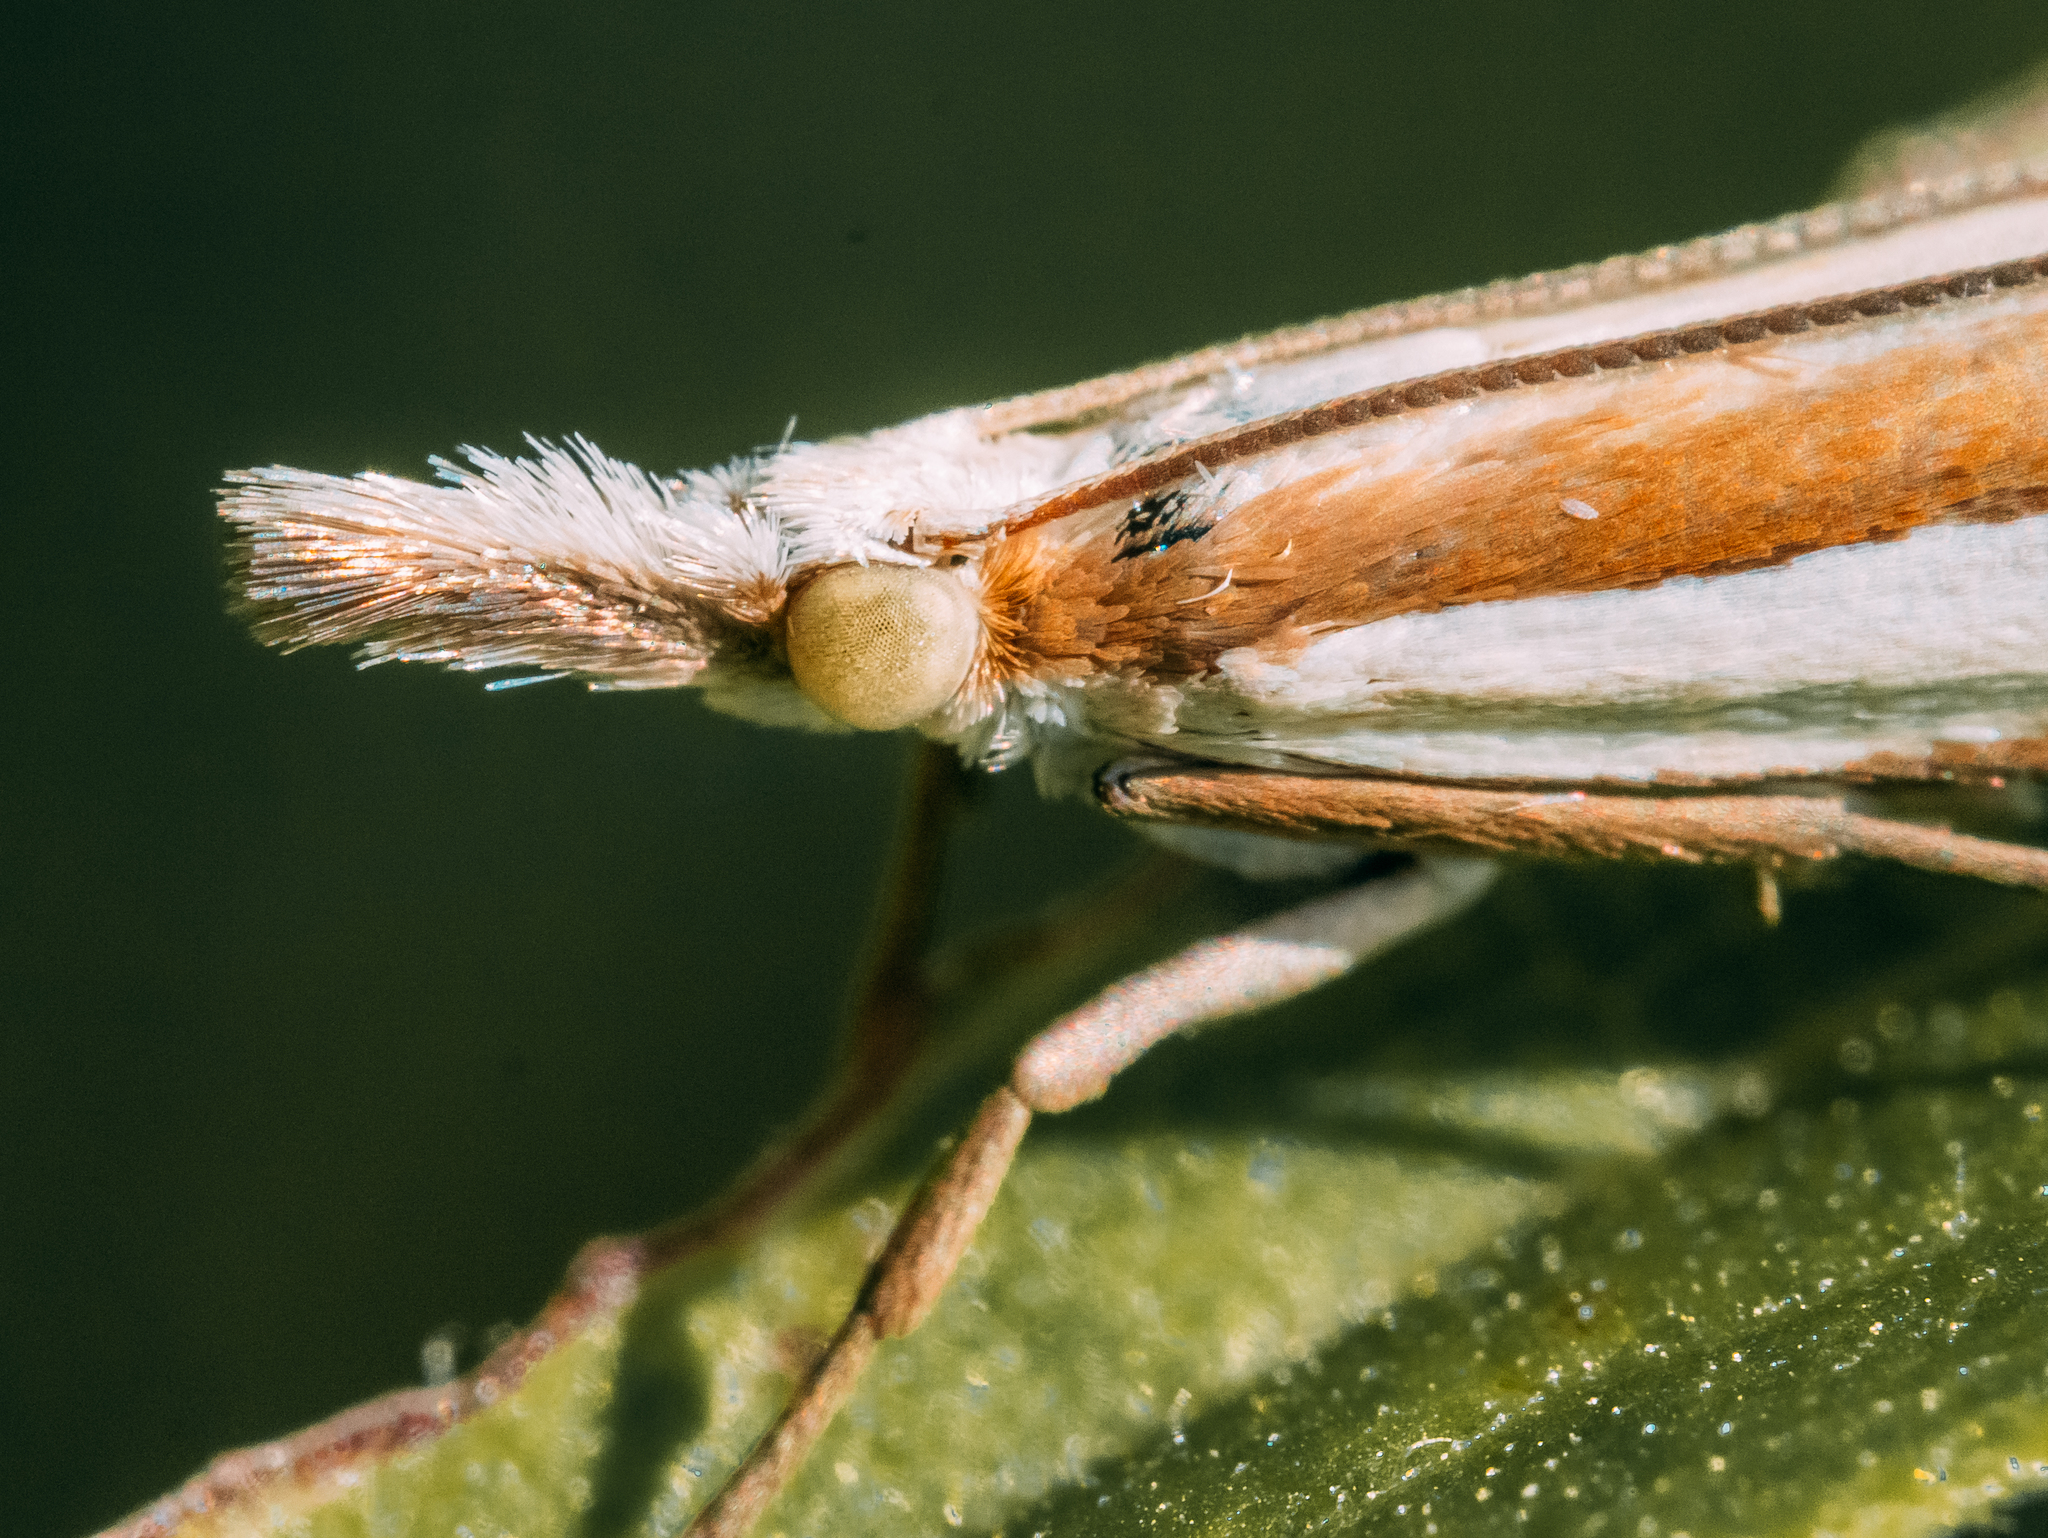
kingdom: Animalia
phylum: Arthropoda
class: Insecta
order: Lepidoptera
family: Crambidae
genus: Crambus
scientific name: Crambus pascuella
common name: Inlaid grass-veneer
